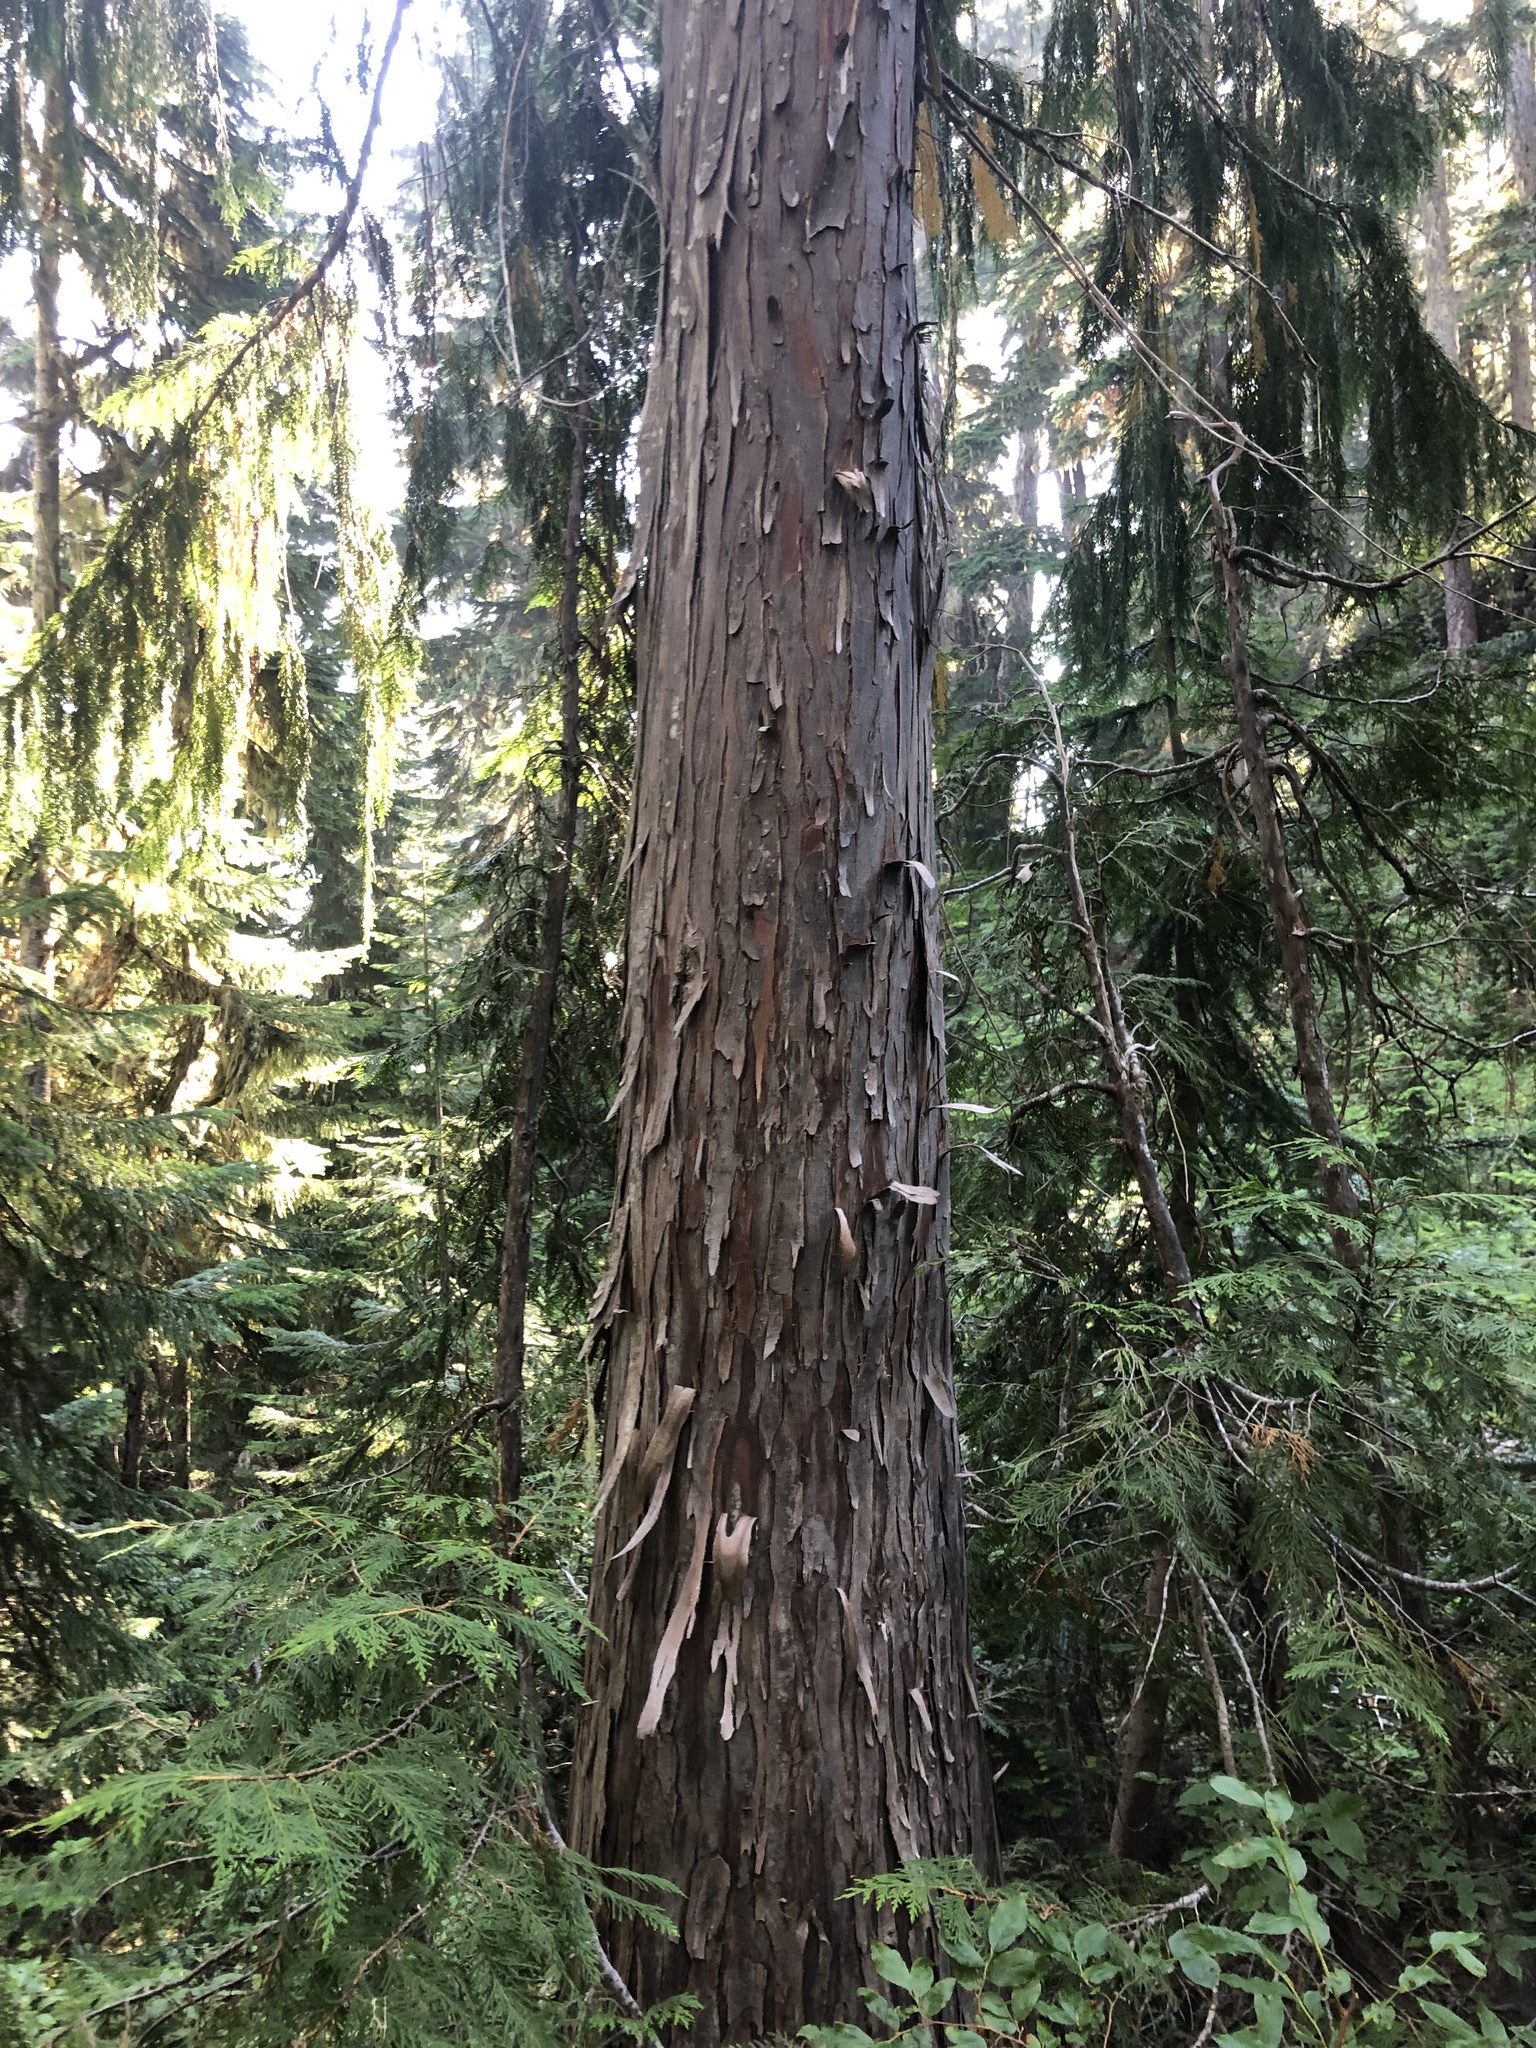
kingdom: Plantae
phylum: Tracheophyta
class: Pinopsida
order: Pinales
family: Cupressaceae
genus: Xanthocyparis
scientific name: Xanthocyparis nootkatensis
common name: Nootka cypress
